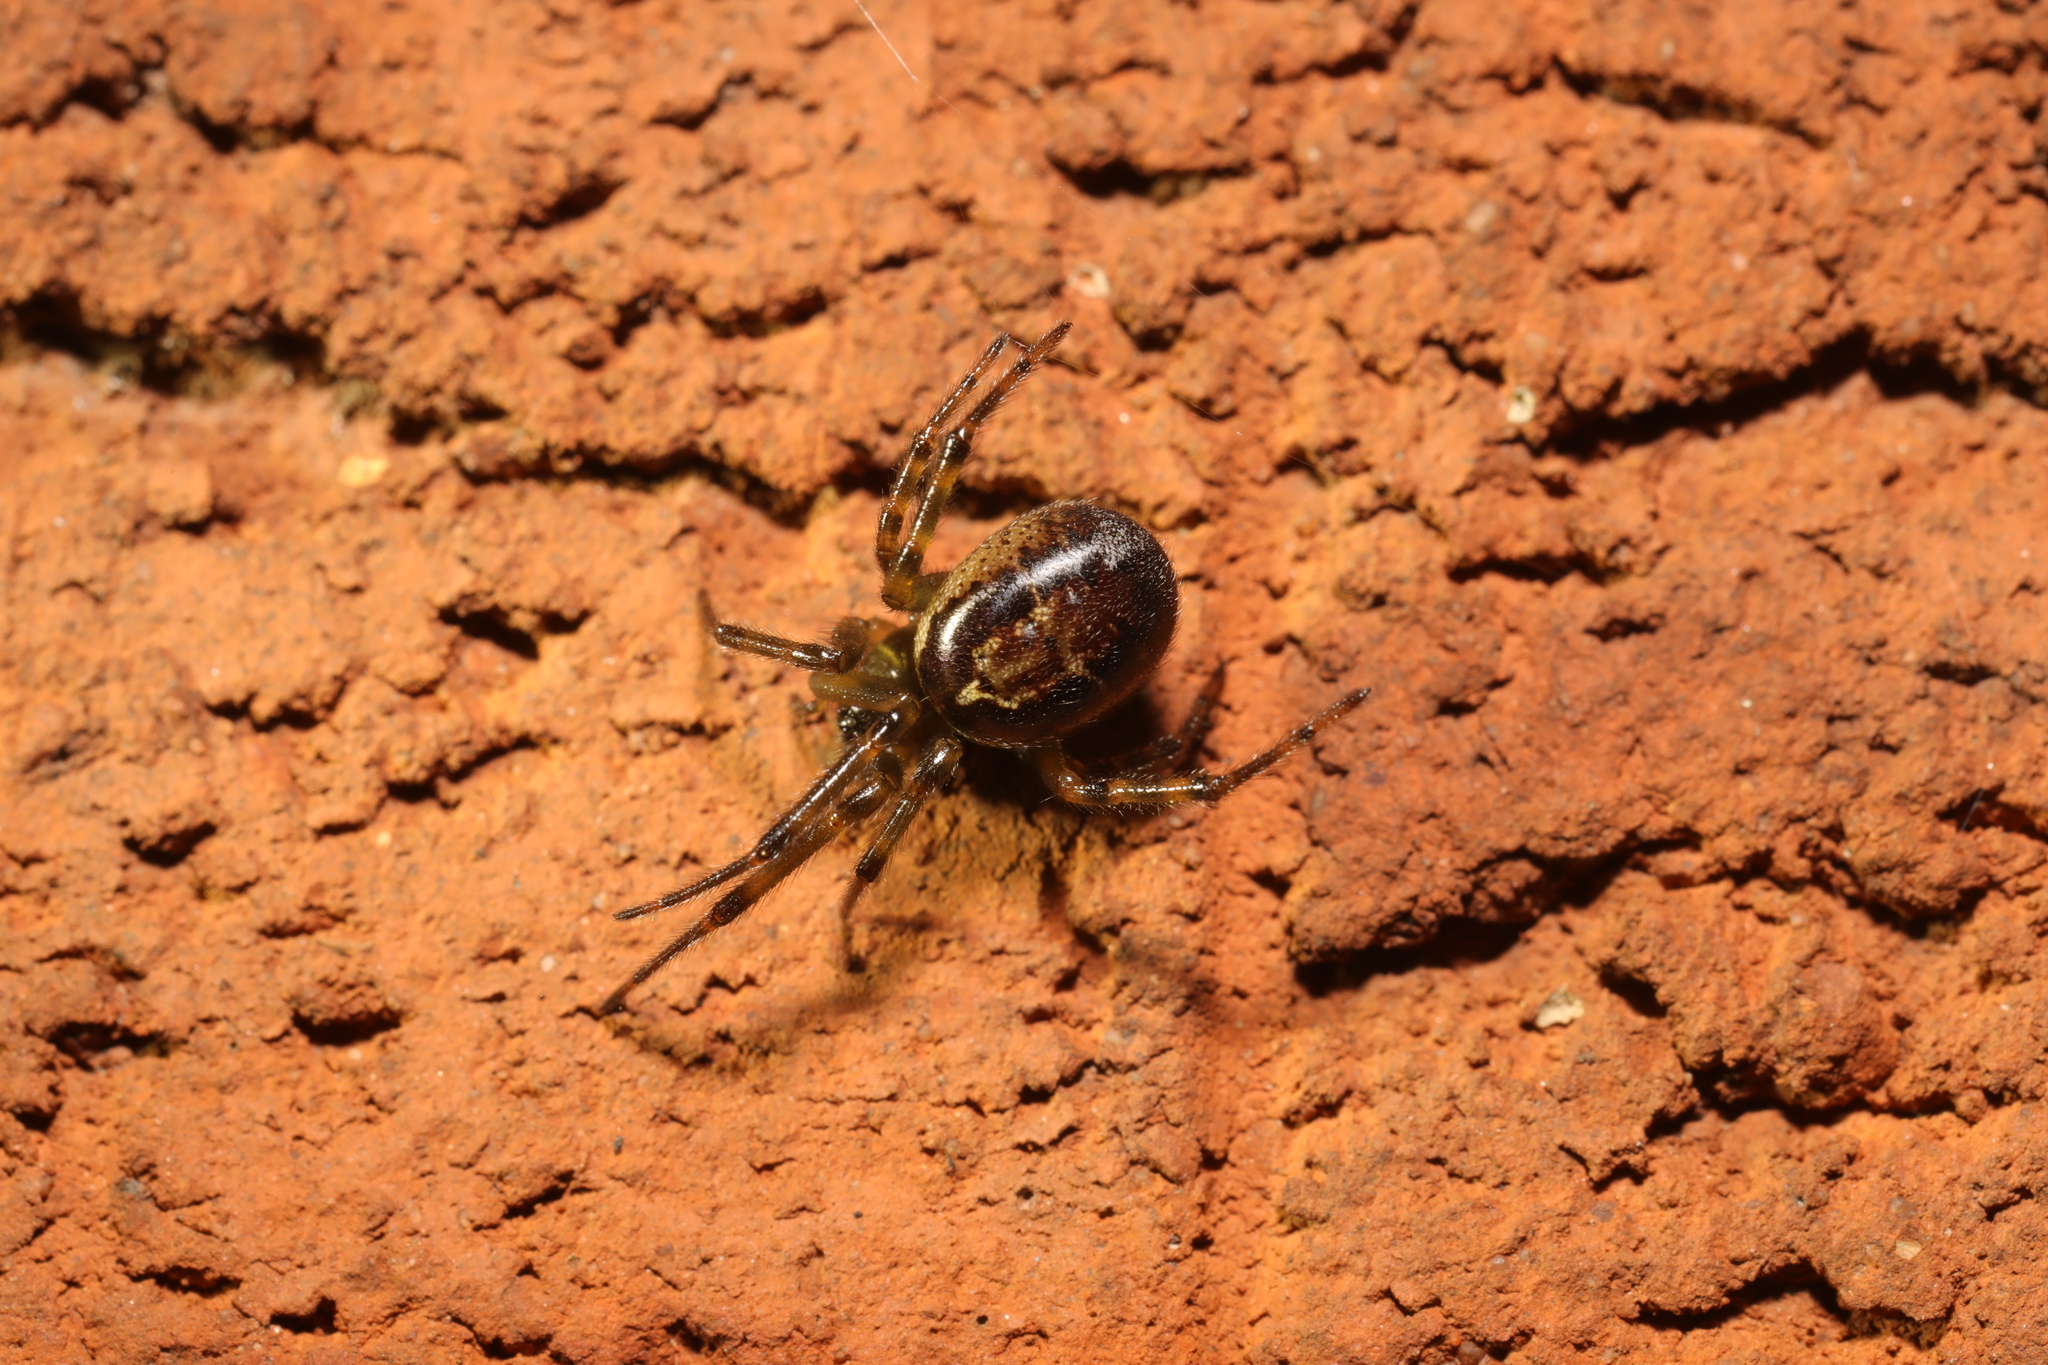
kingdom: Animalia
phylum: Arthropoda
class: Arachnida
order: Araneae
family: Theridiidae
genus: Steatoda
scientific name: Steatoda nobilis
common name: Cobweb weaver
